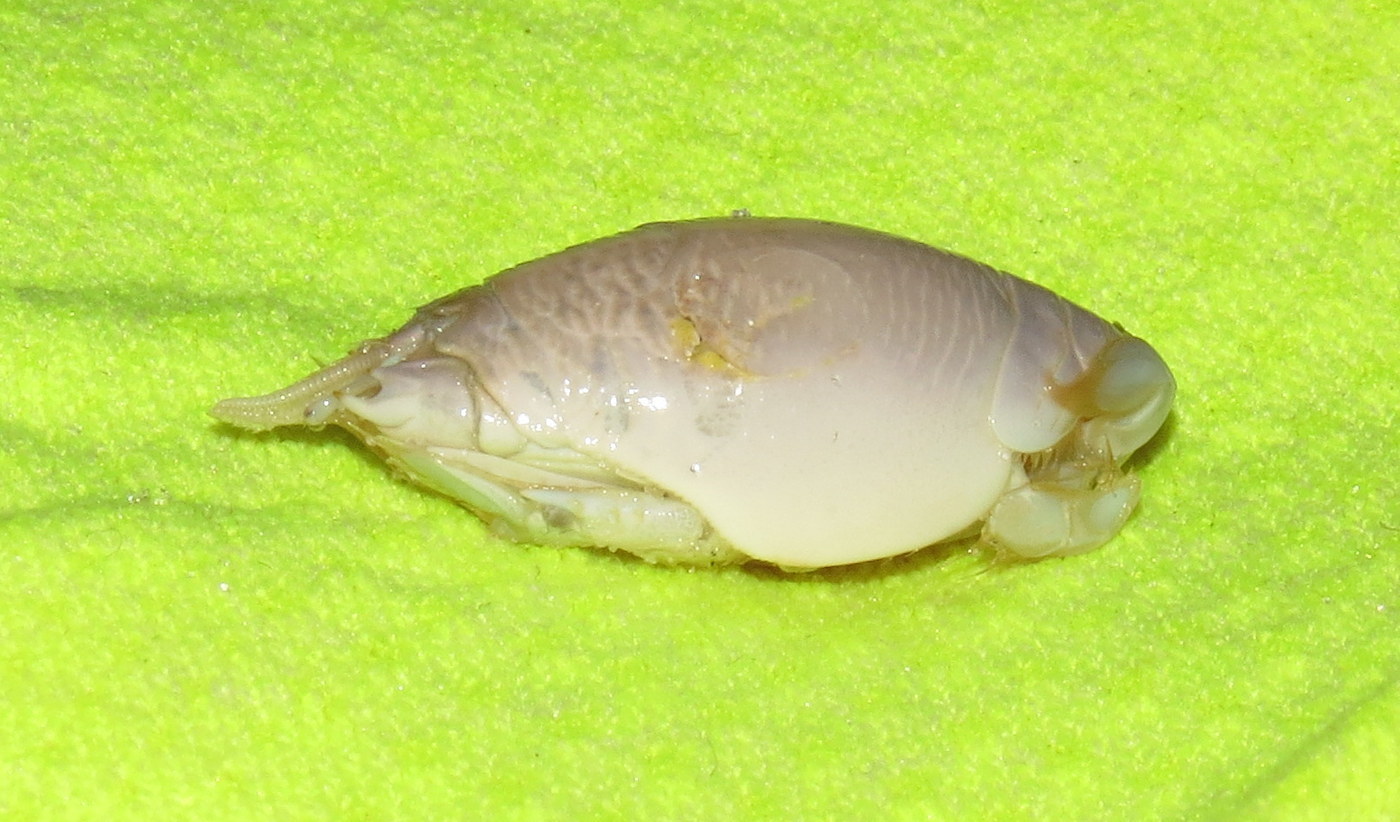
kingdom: Animalia
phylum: Arthropoda
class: Malacostraca
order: Decapoda
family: Hippidae
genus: Emerita
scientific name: Emerita talpoida
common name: Atlantic sand crab
